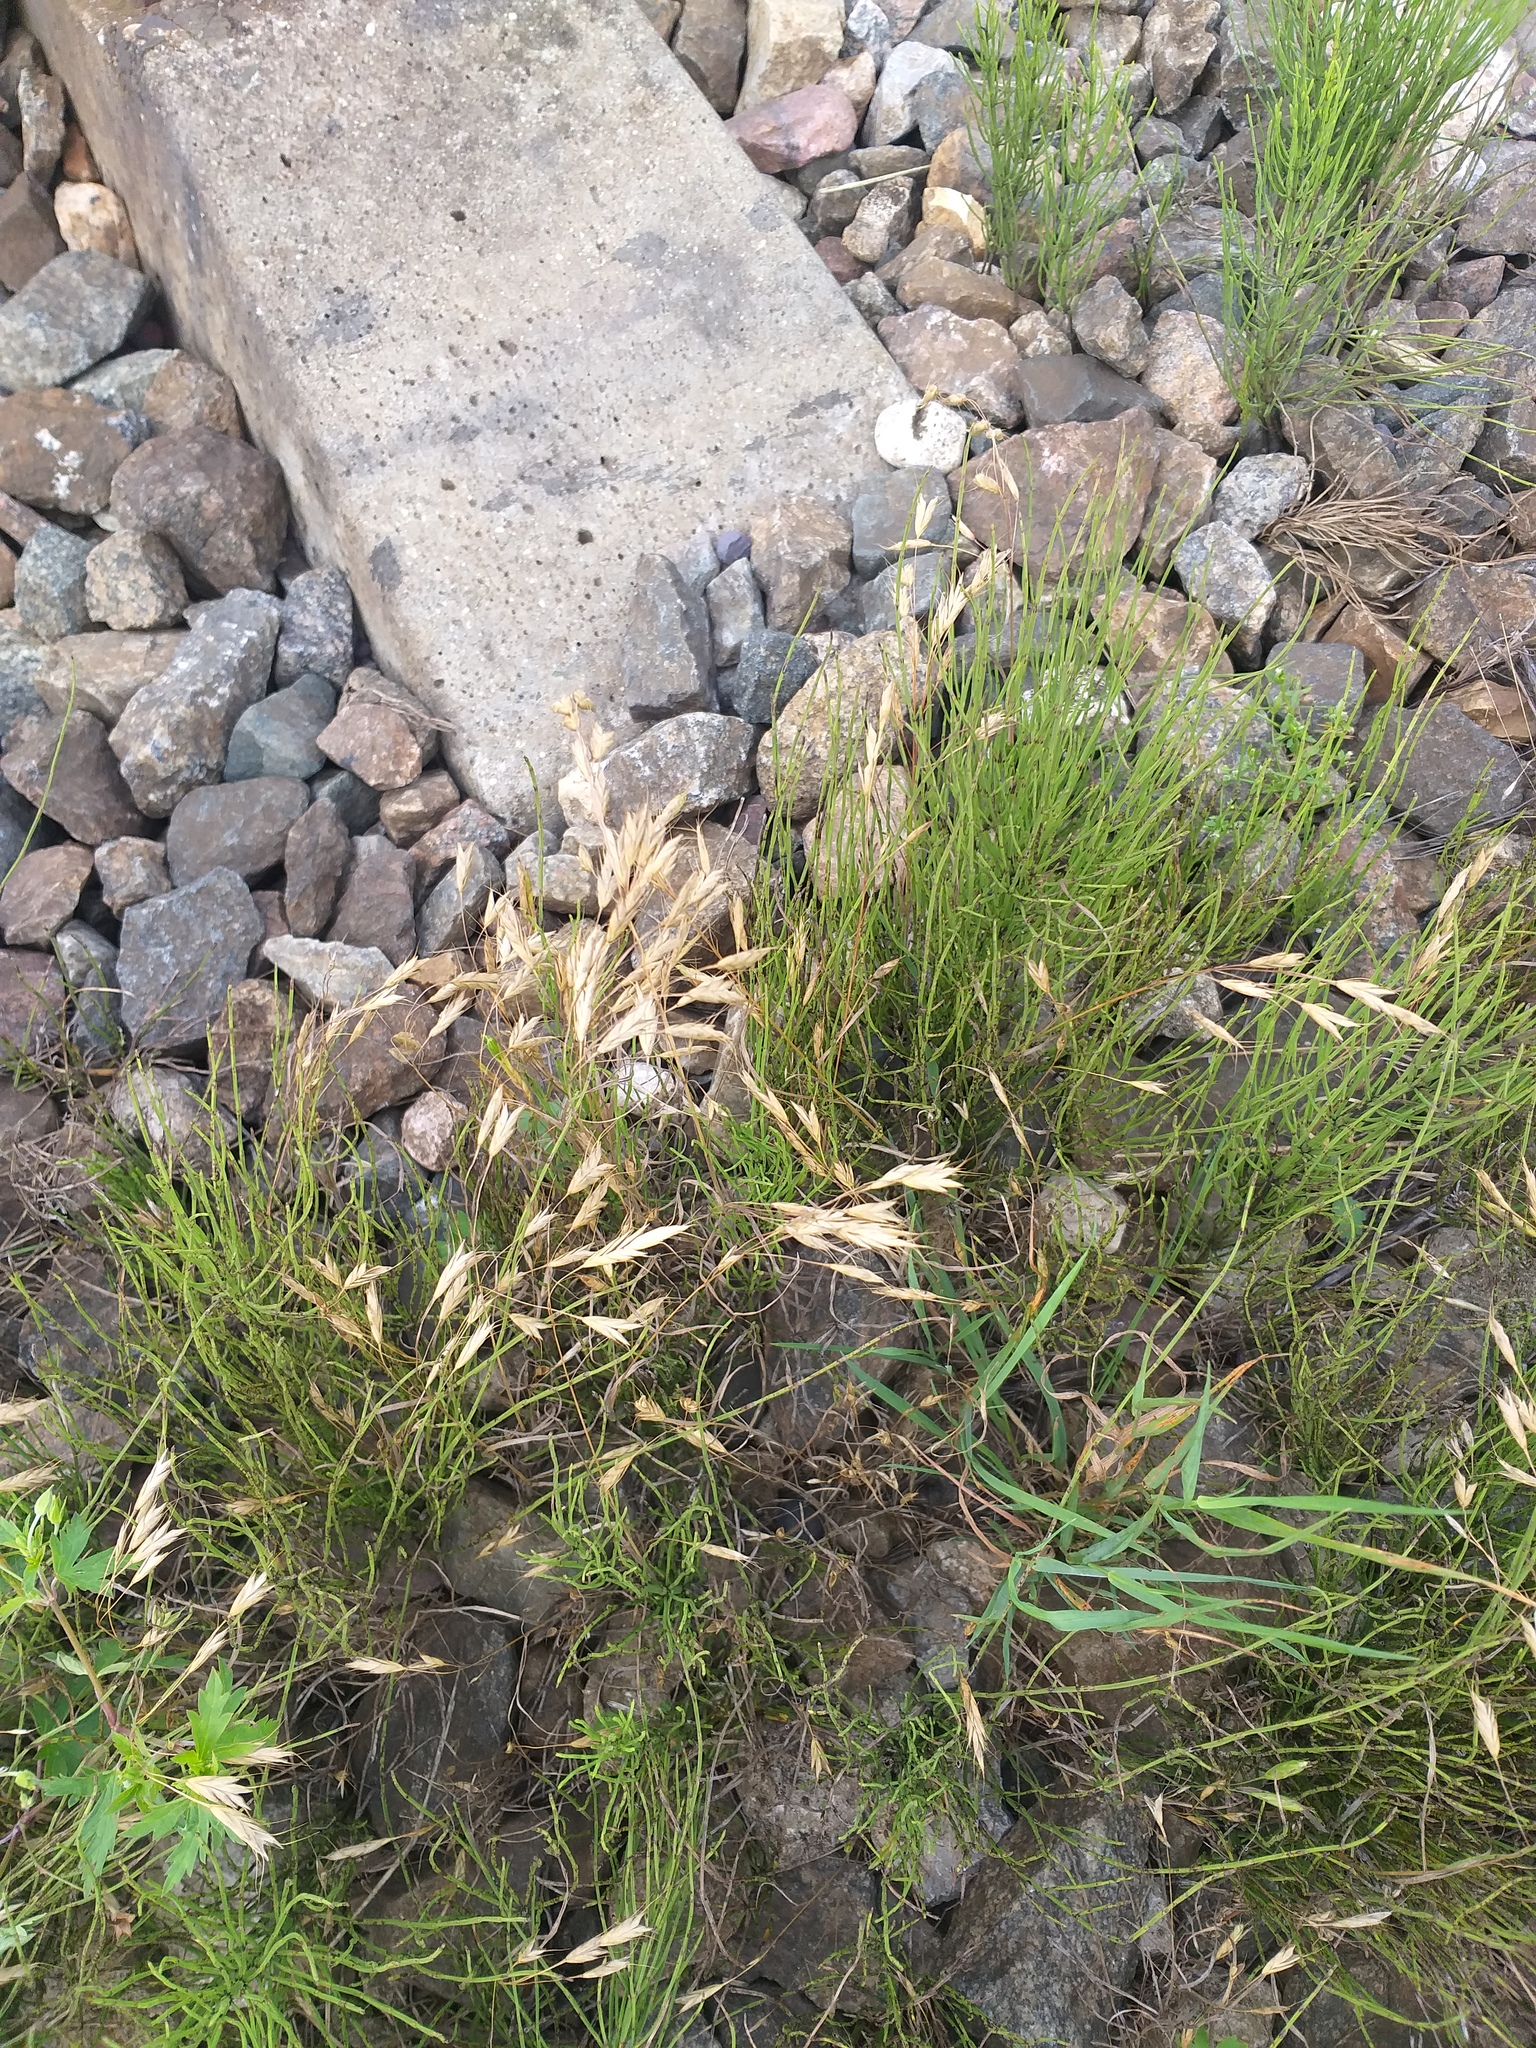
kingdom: Plantae
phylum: Tracheophyta
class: Liliopsida
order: Poales
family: Poaceae
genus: Bromus
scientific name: Bromus japonicus
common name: Japanese brome
